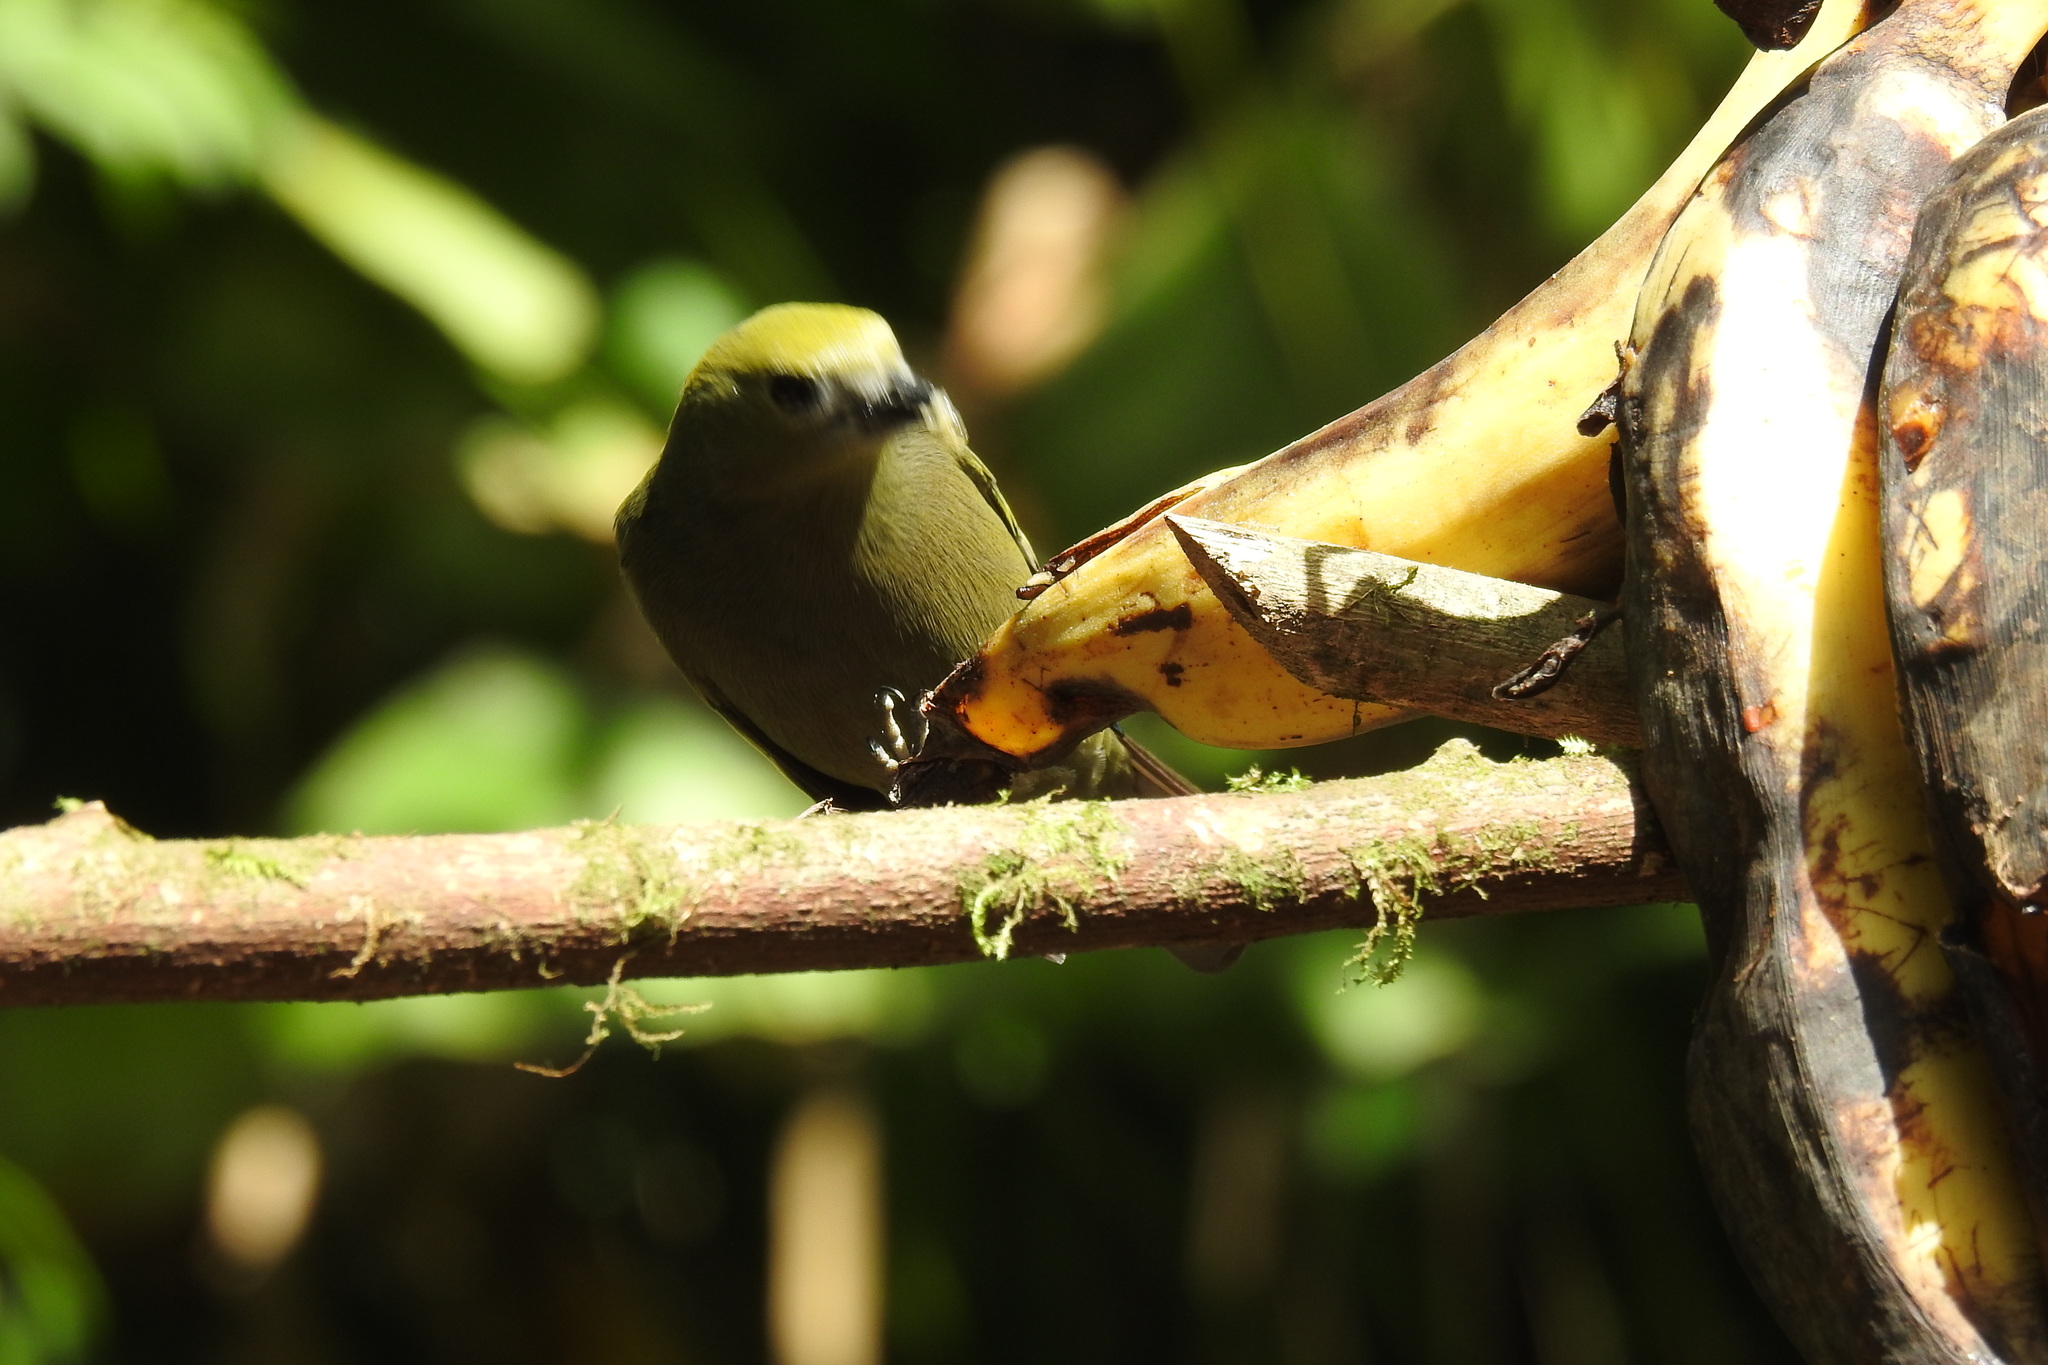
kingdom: Animalia
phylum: Chordata
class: Aves
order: Passeriformes
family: Thraupidae
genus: Thraupis
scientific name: Thraupis palmarum
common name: Palm tanager
